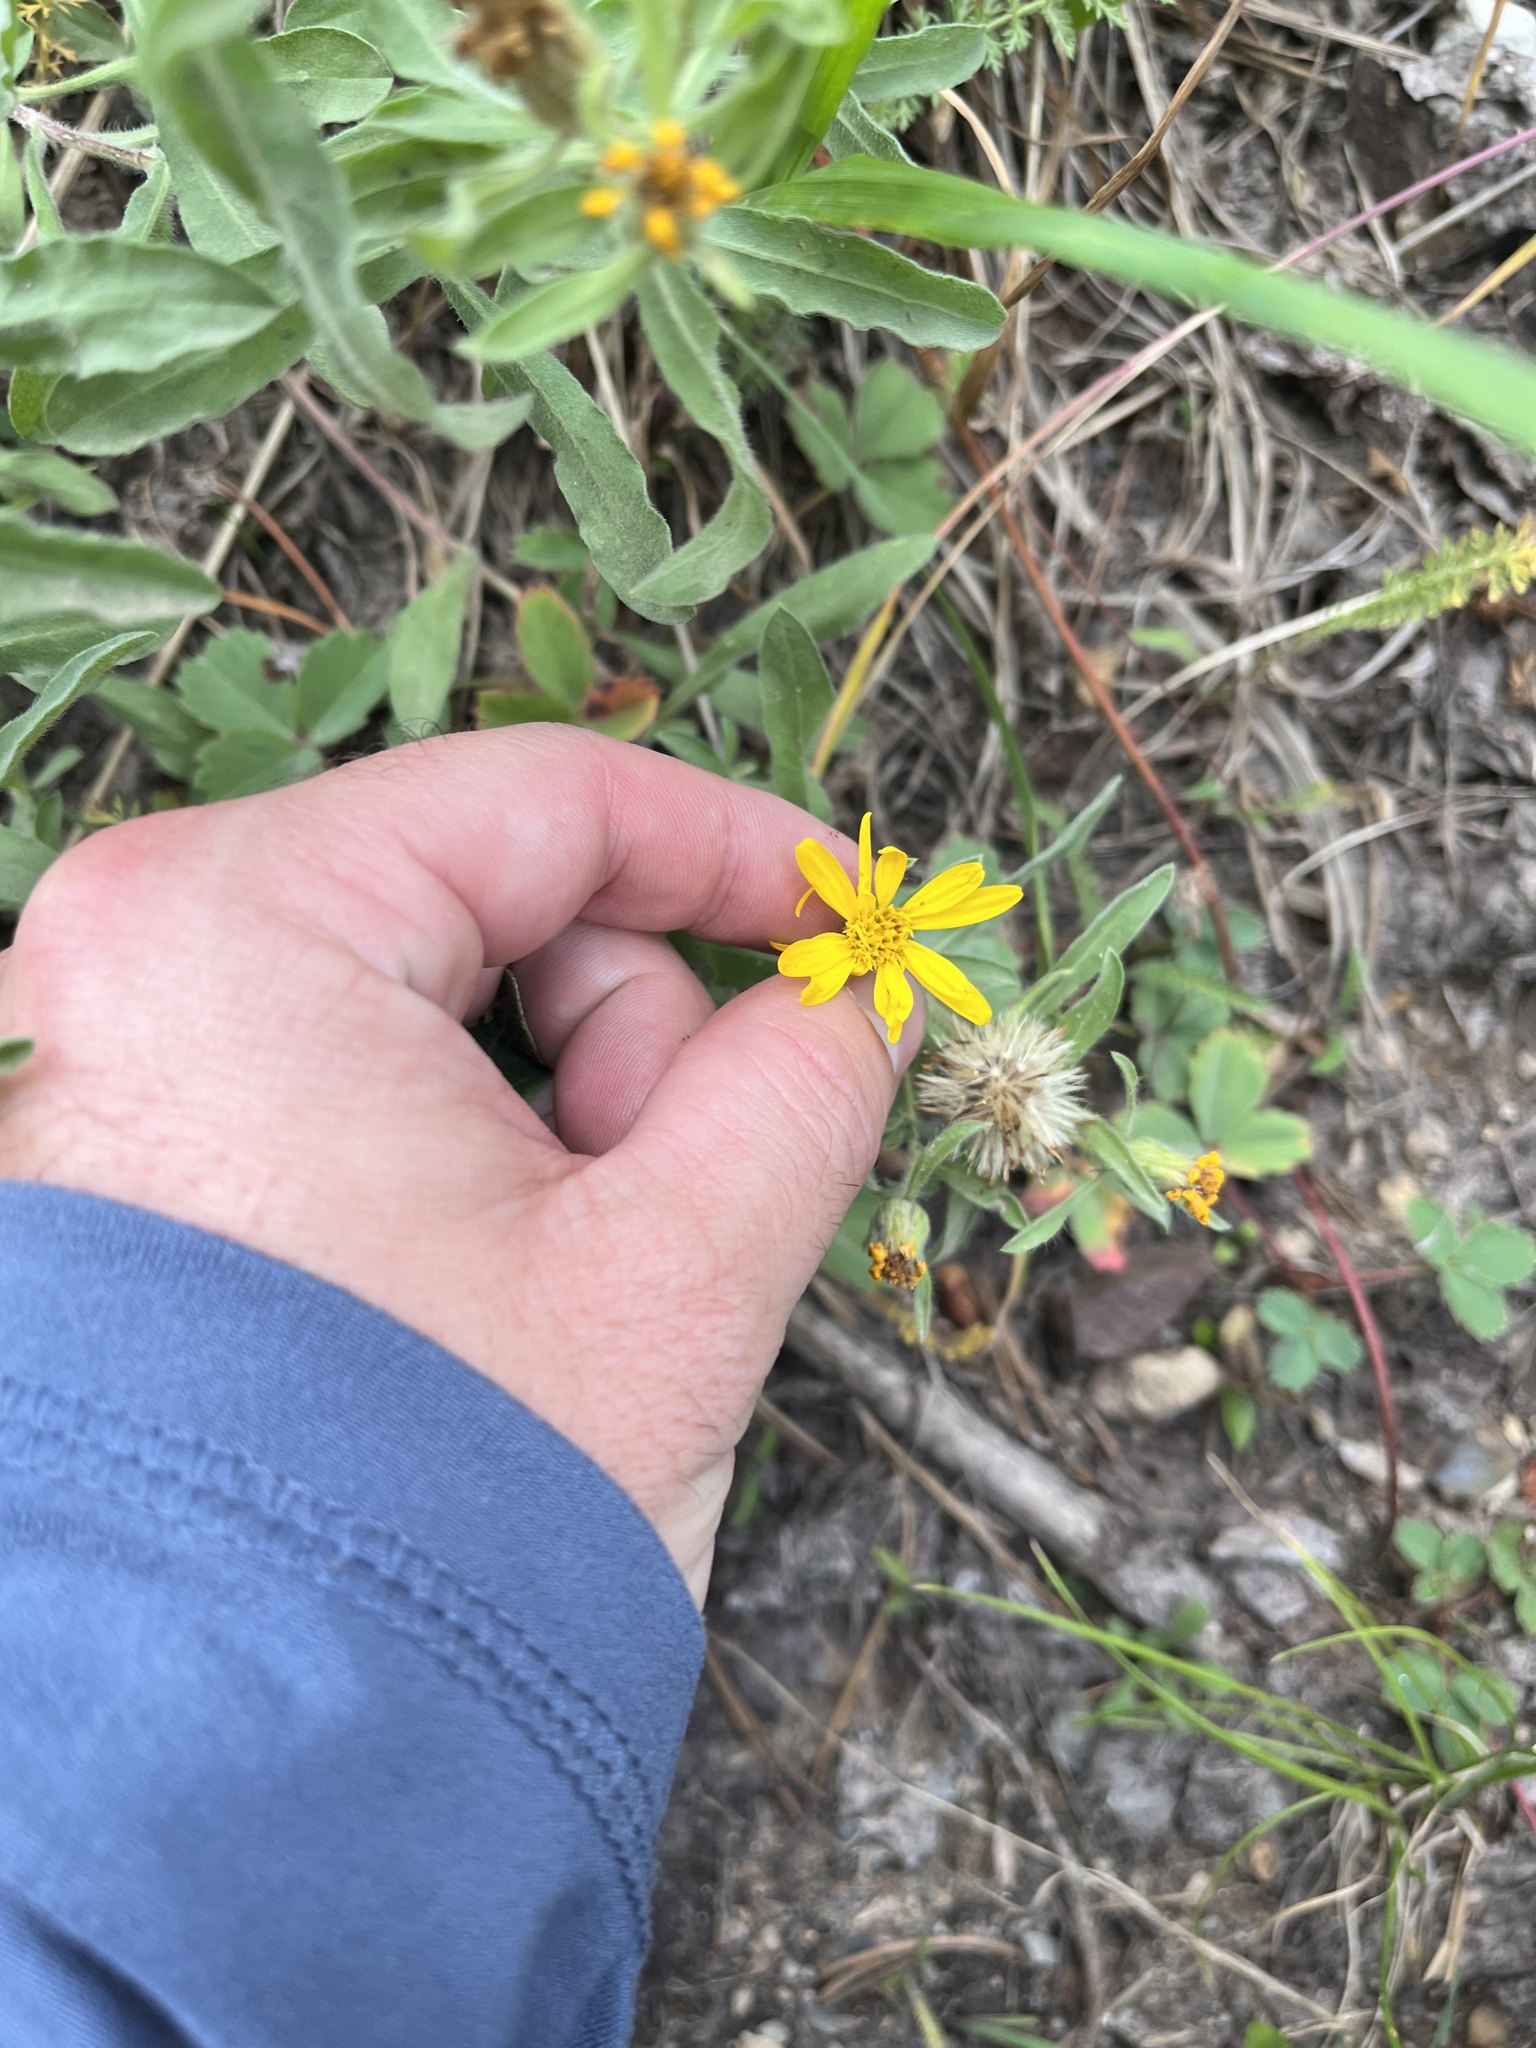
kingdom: Plantae
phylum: Tracheophyta
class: Magnoliopsida
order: Asterales
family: Asteraceae
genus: Heterotheca
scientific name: Heterotheca pumila
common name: Alpine golden-aster
